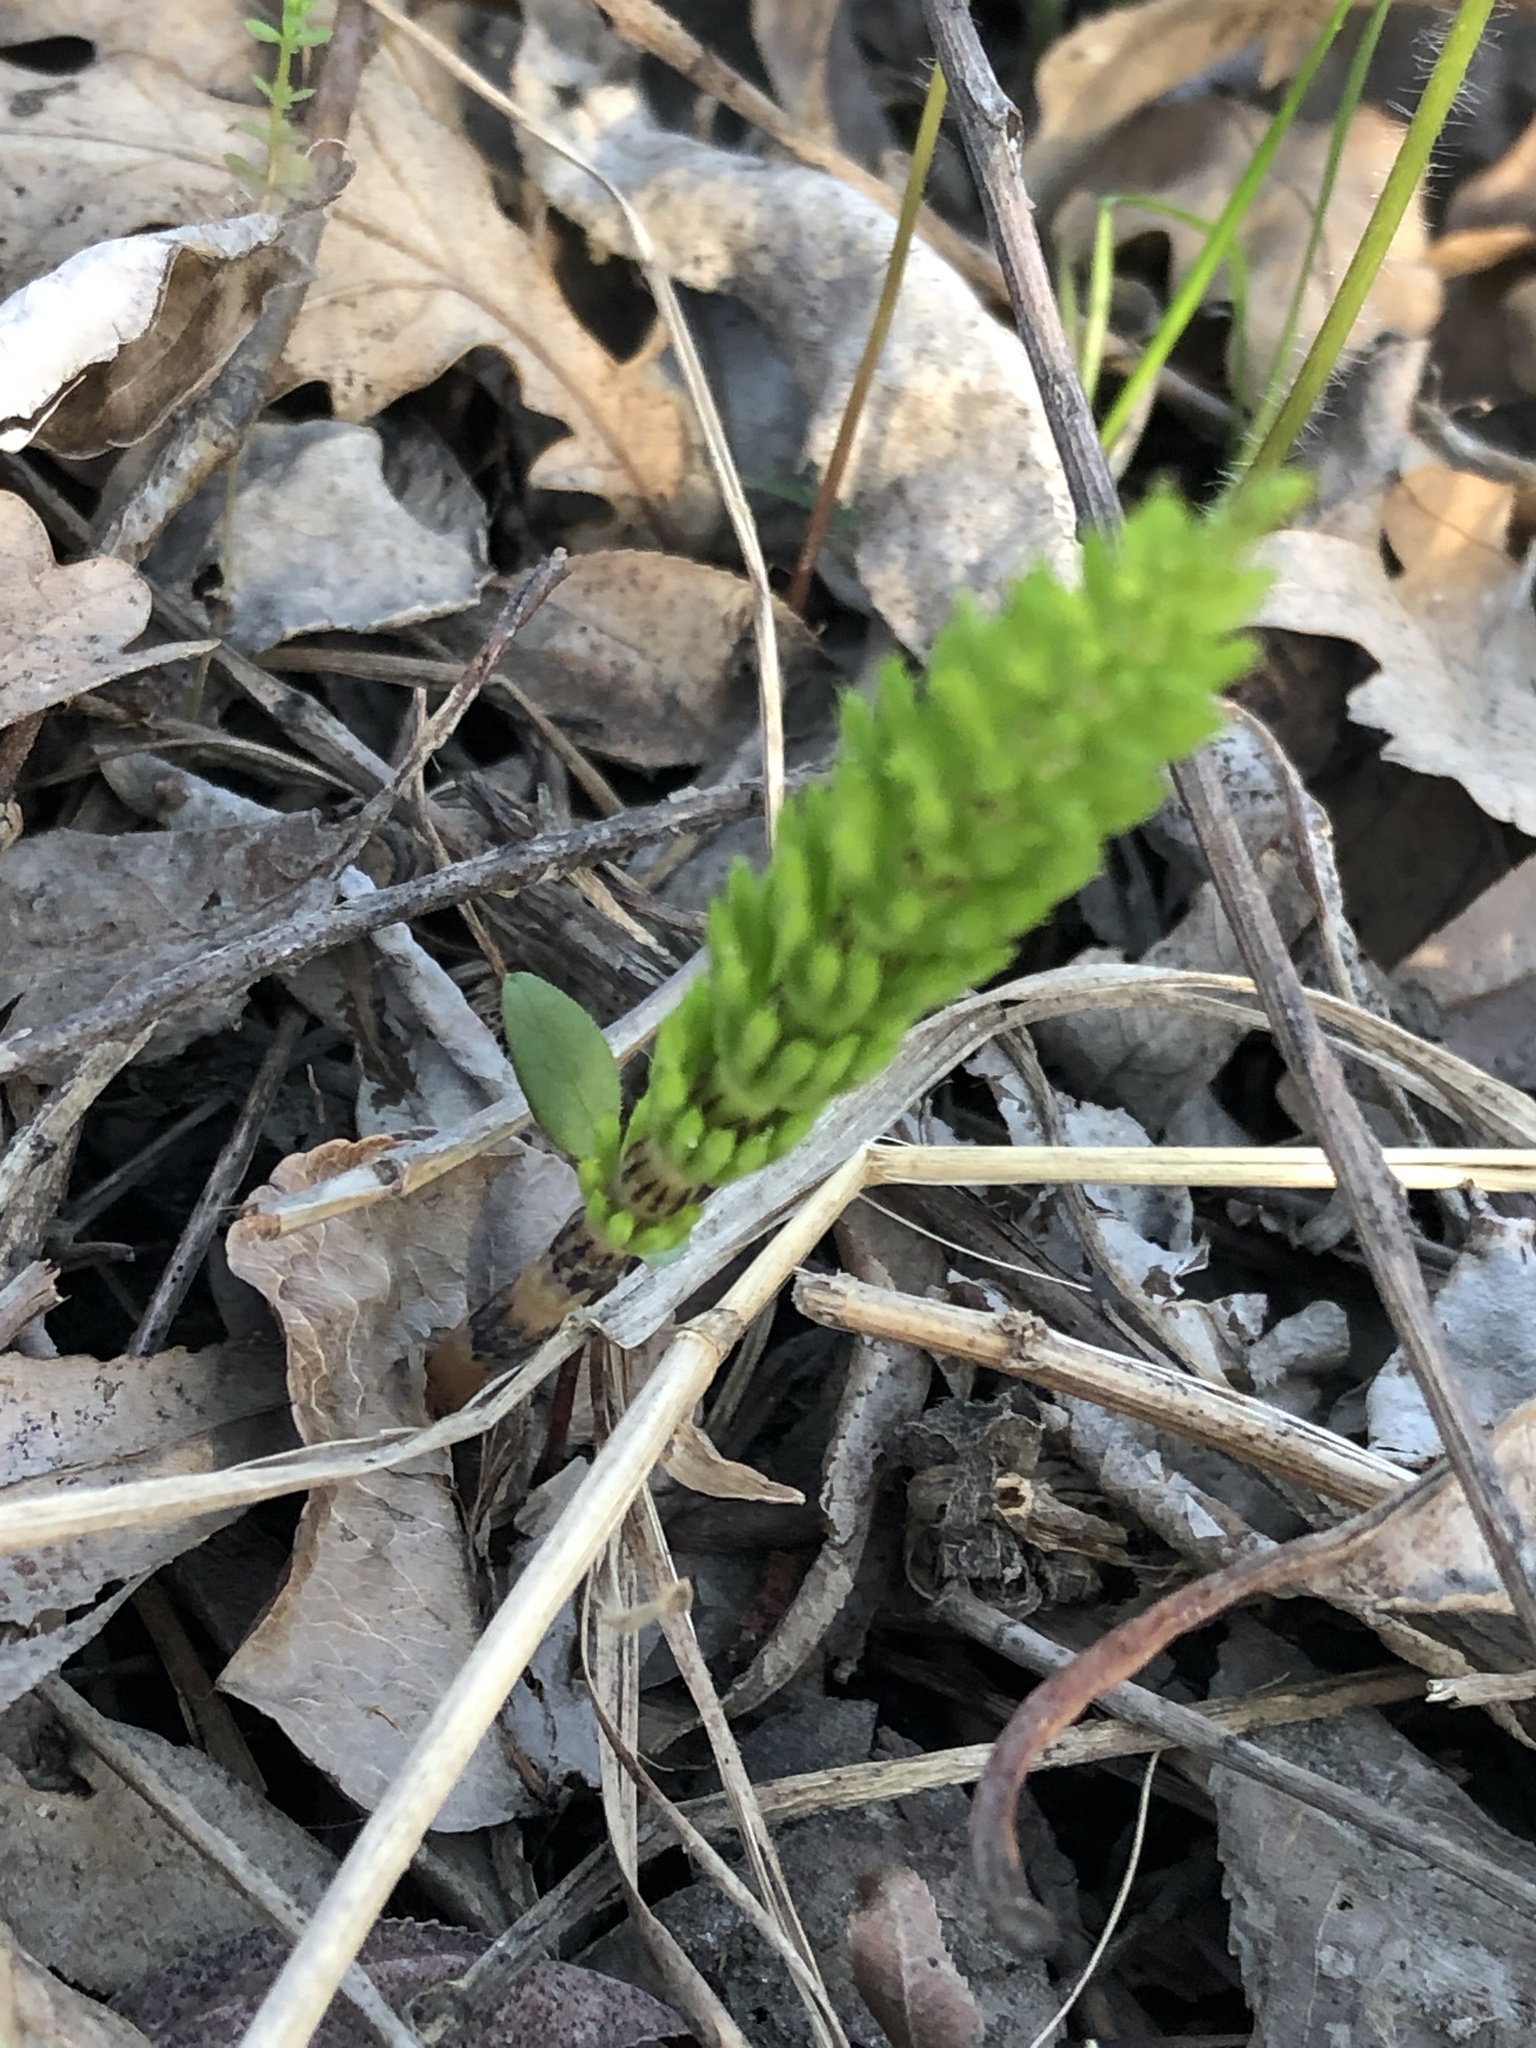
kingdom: Plantae
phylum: Tracheophyta
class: Polypodiopsida
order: Equisetales
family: Equisetaceae
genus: Equisetum
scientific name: Equisetum arvense
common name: Field horsetail
